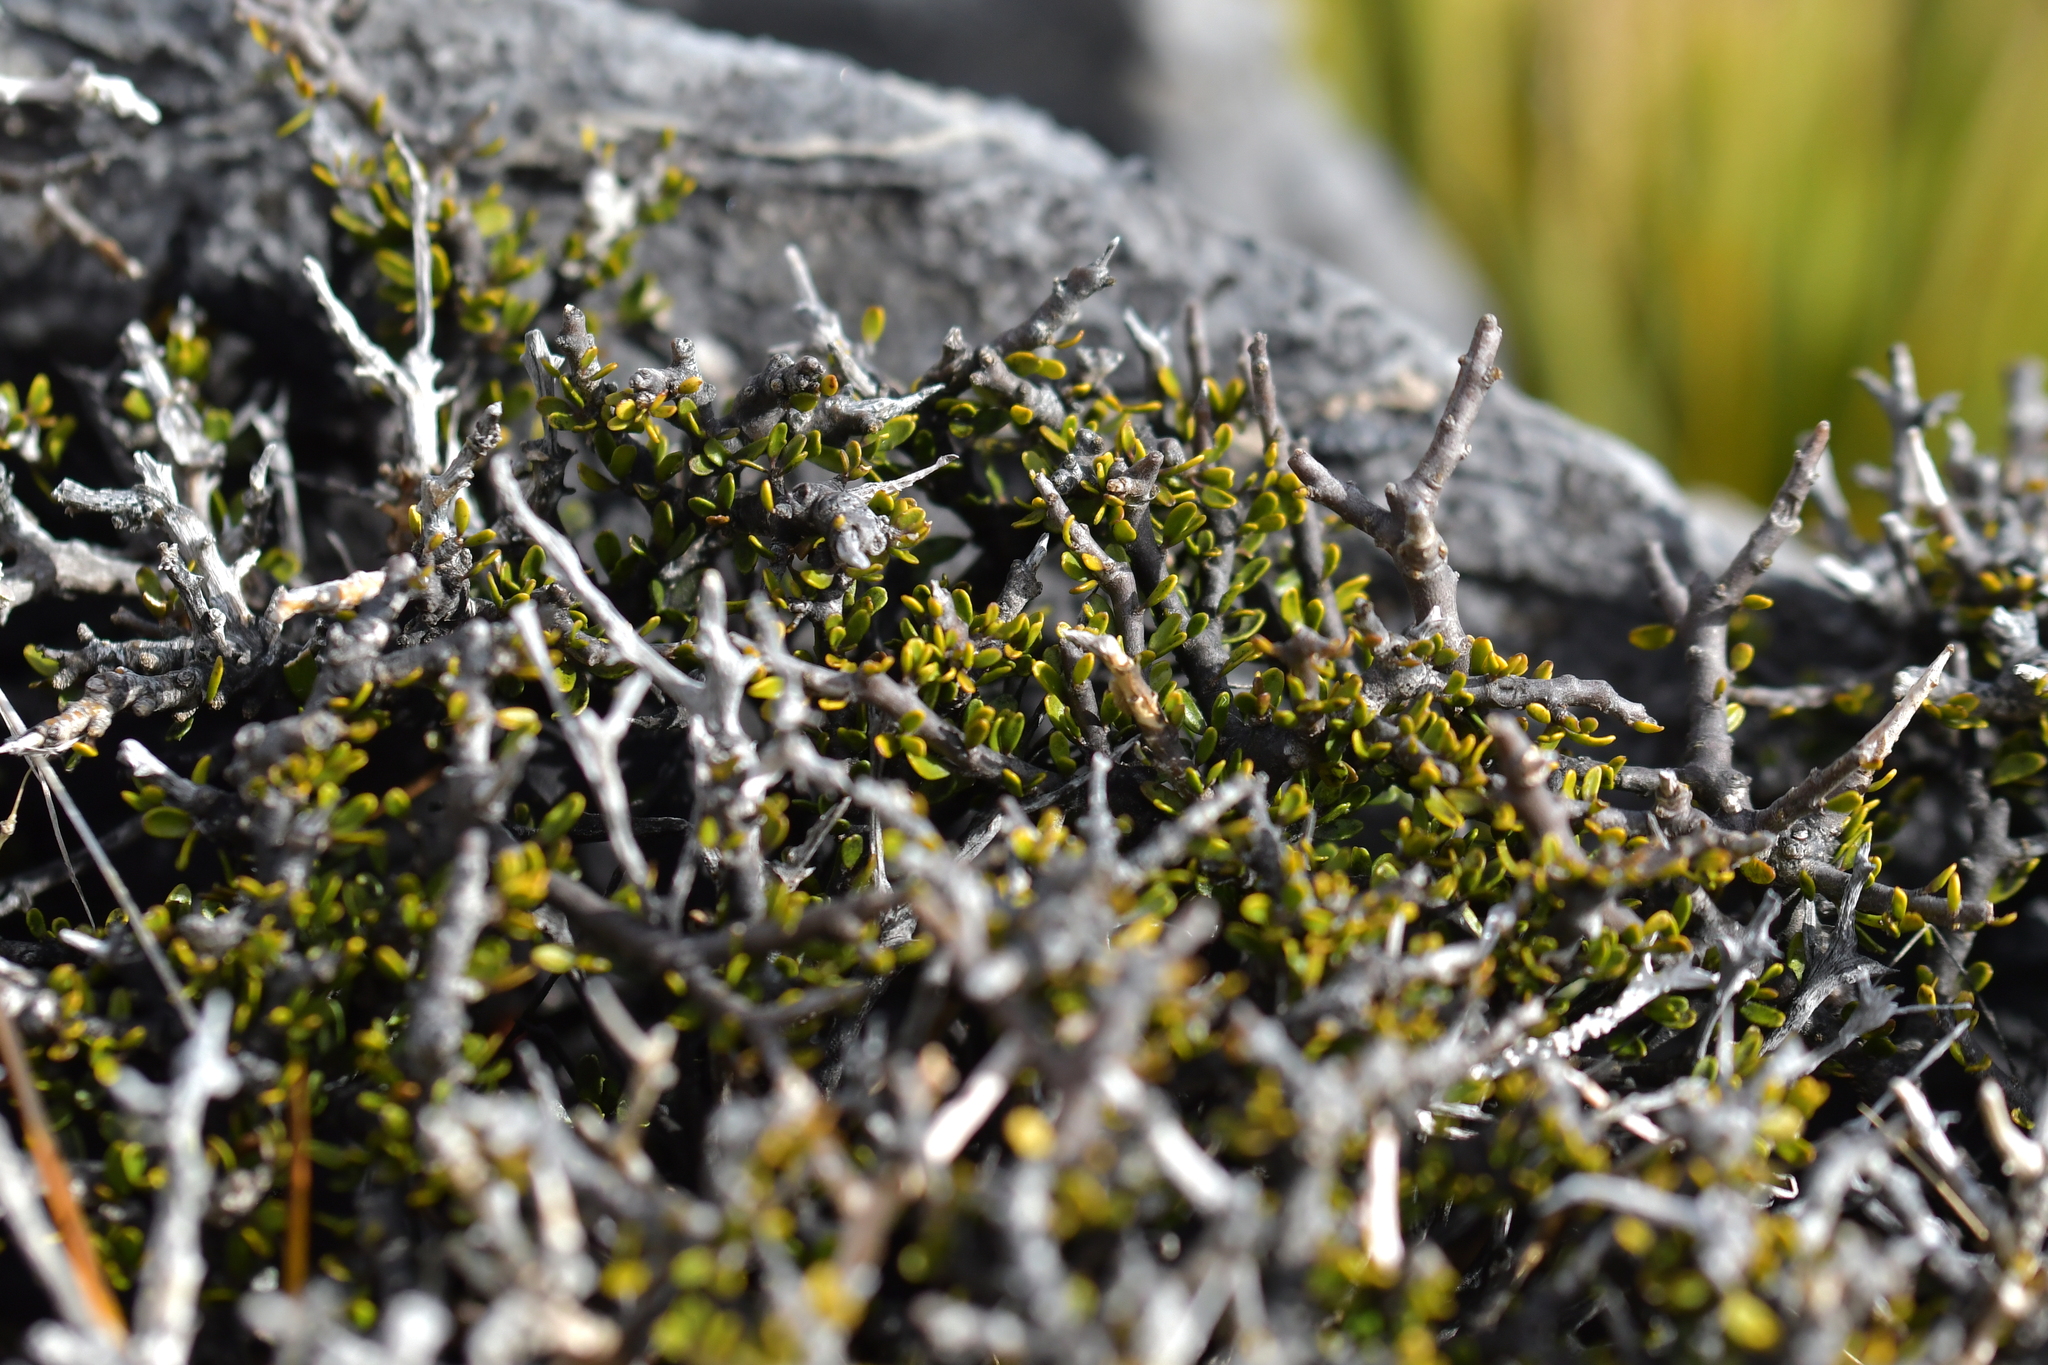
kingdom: Plantae
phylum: Tracheophyta
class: Magnoliopsida
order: Malpighiales
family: Violaceae
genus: Melicytus
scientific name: Melicytus alpinus
